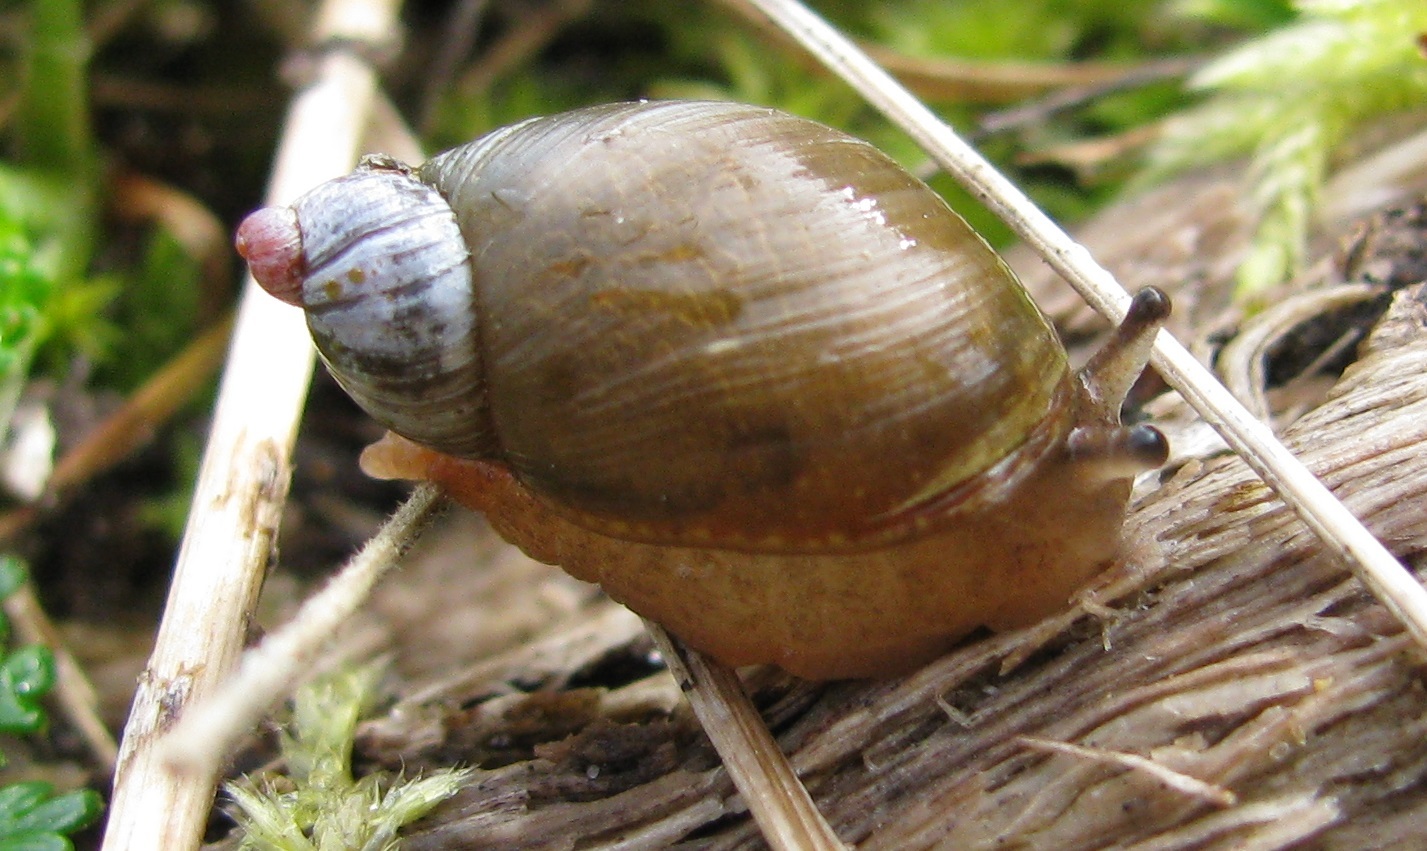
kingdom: Animalia
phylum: Mollusca
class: Gastropoda
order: Stylommatophora
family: Succineidae
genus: Succinea
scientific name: Succinea australis
